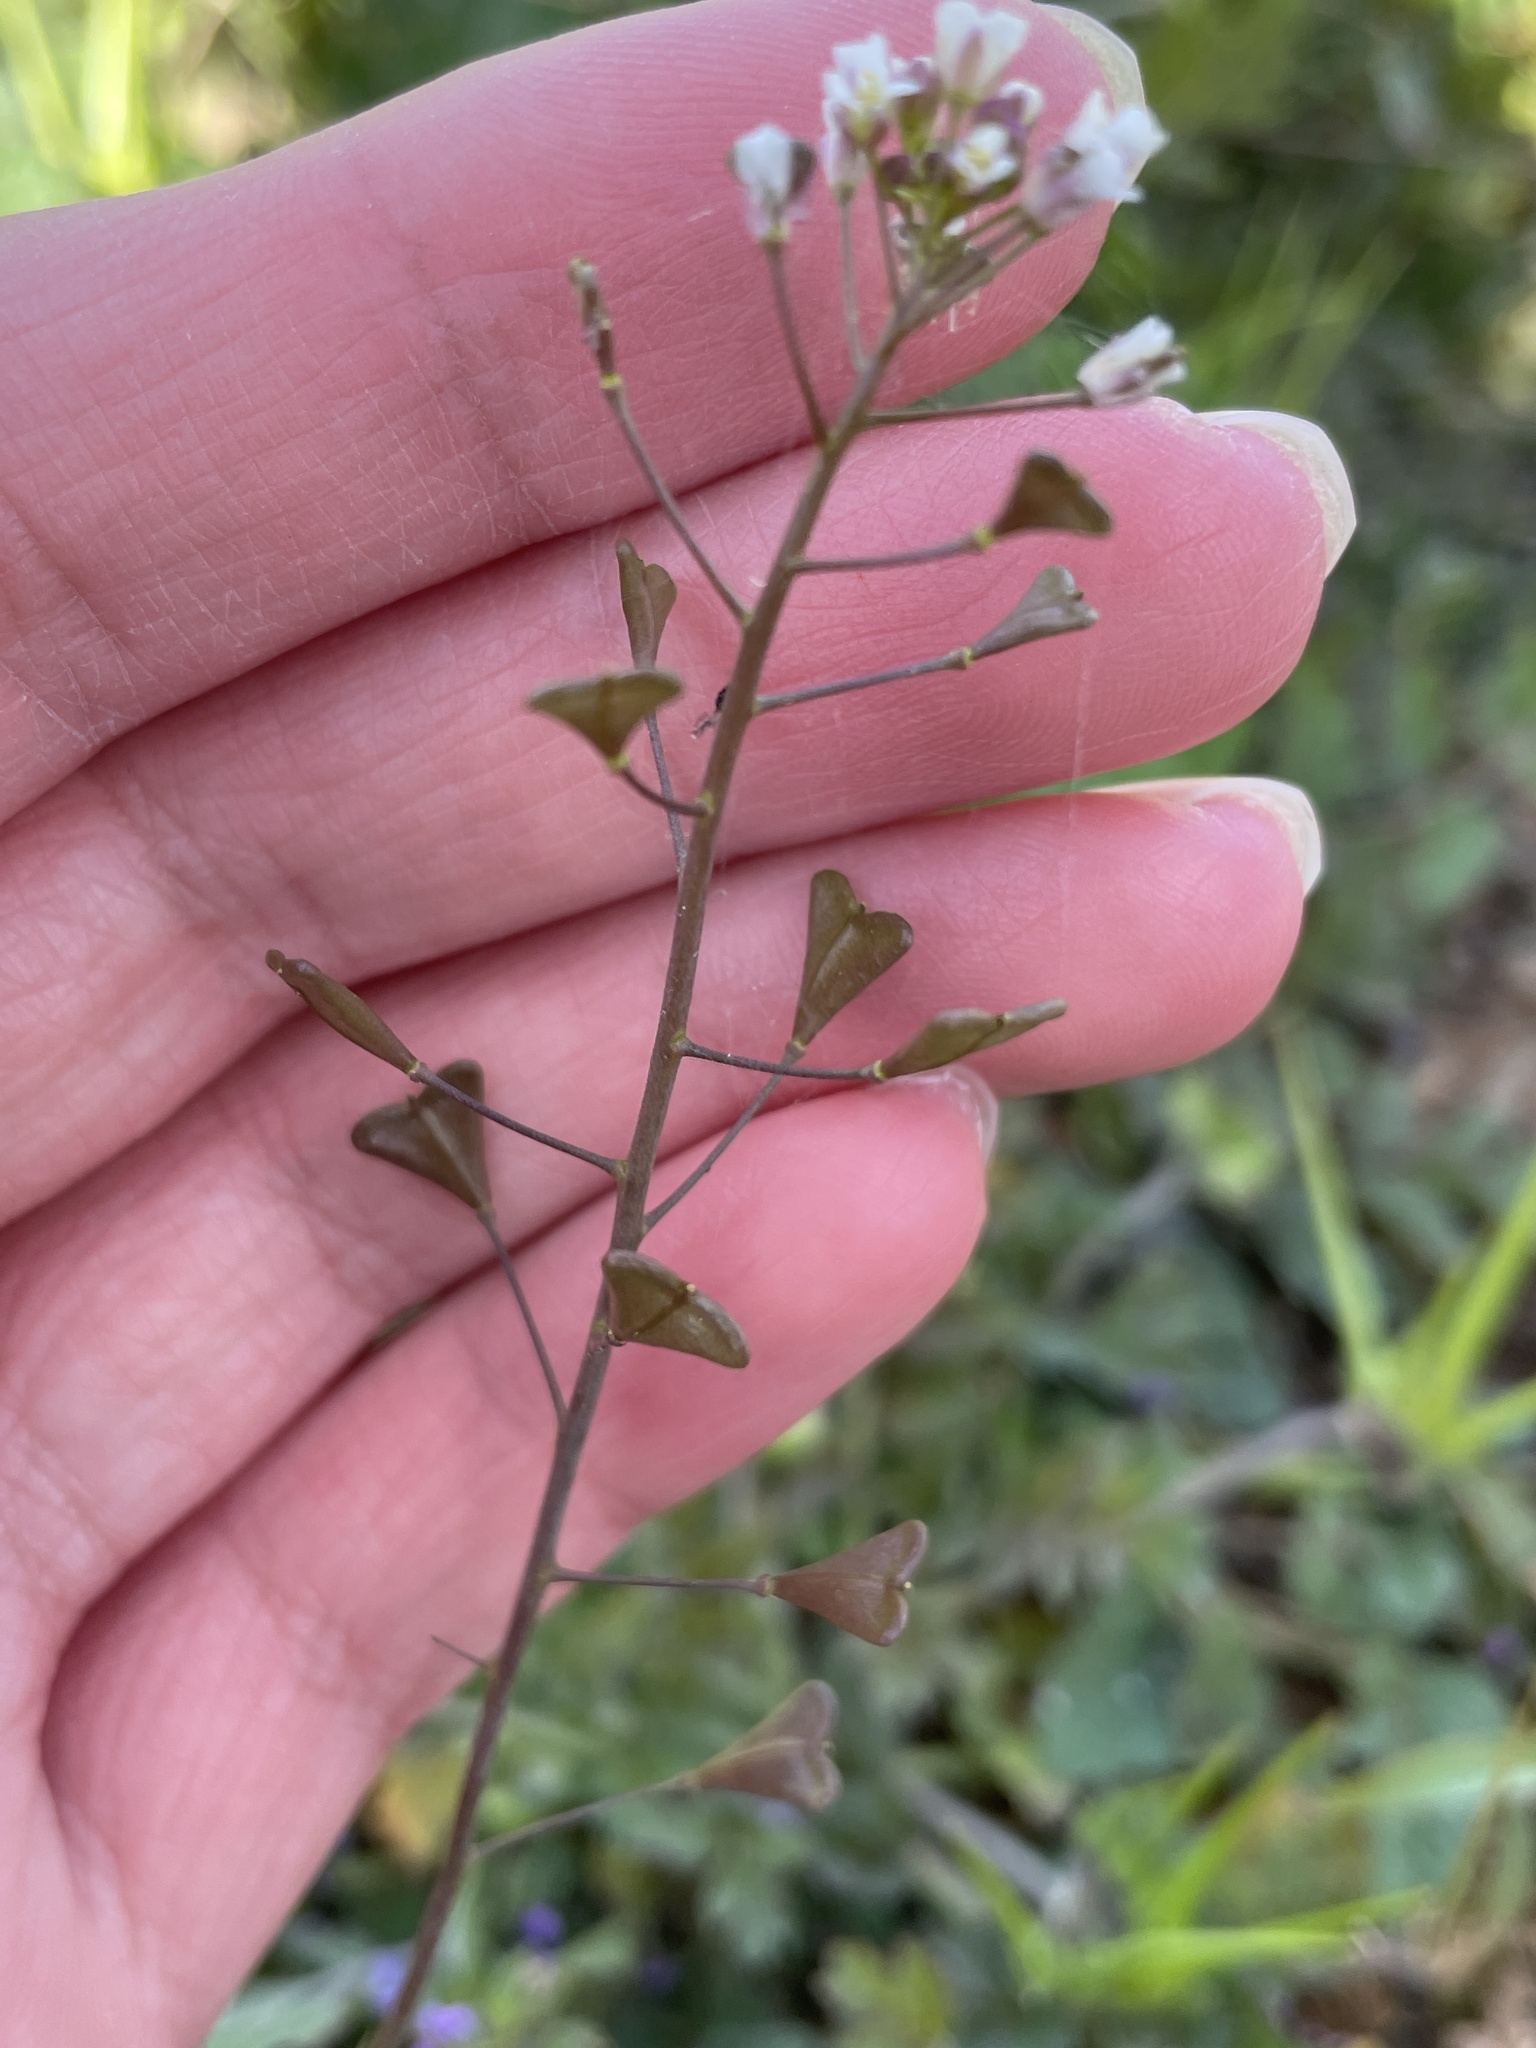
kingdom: Plantae
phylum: Tracheophyta
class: Magnoliopsida
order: Brassicales
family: Brassicaceae
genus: Capsella
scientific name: Capsella bursa-pastoris
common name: Shepherd's purse
